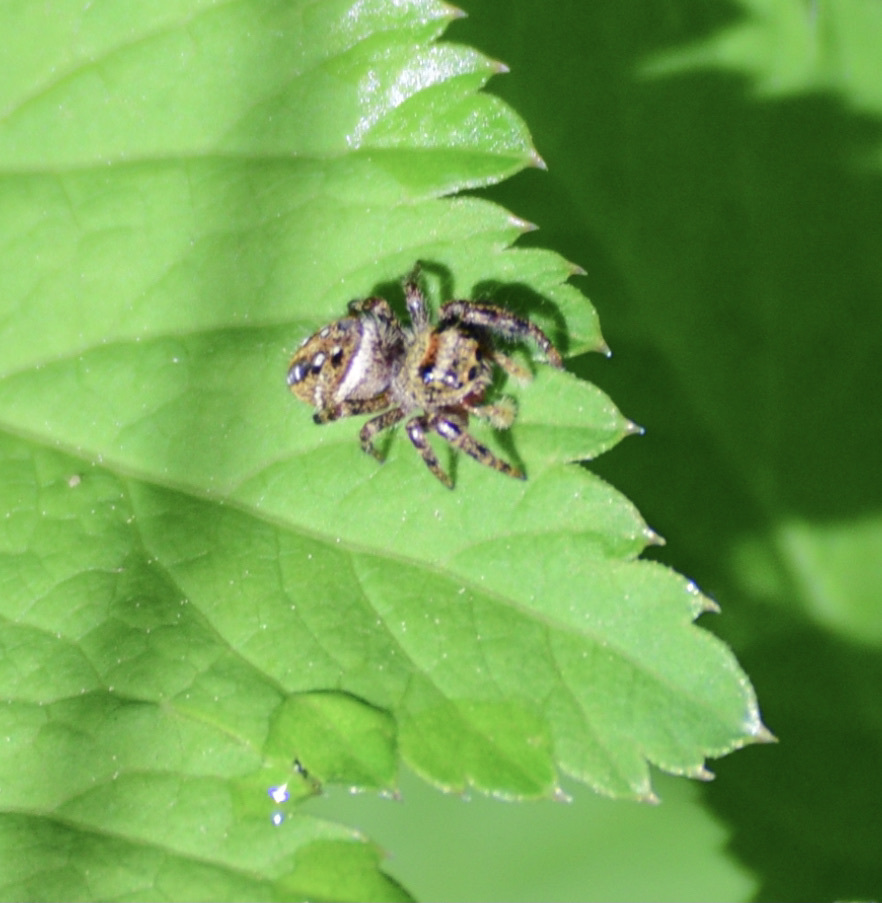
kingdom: Animalia
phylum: Arthropoda
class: Arachnida
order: Araneae
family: Salticidae
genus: Phidippus
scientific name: Phidippus clarus
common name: Brilliant jumping spider
